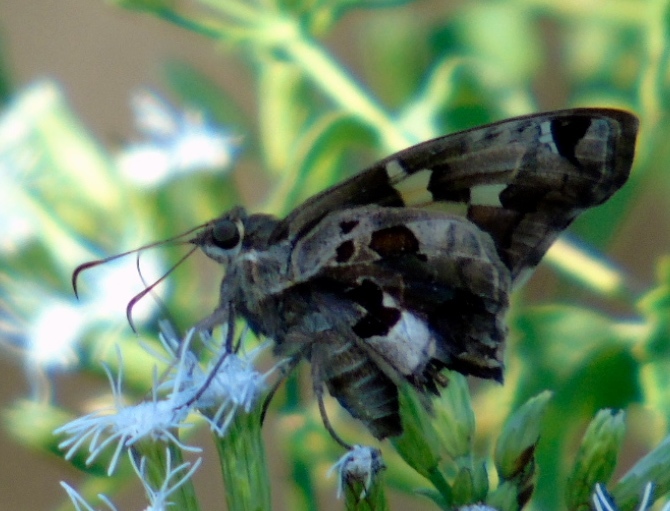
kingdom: Animalia
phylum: Arthropoda
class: Insecta
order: Lepidoptera
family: Hesperiidae
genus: Chioides
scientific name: Chioides zilpa
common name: Zilpa longtail
